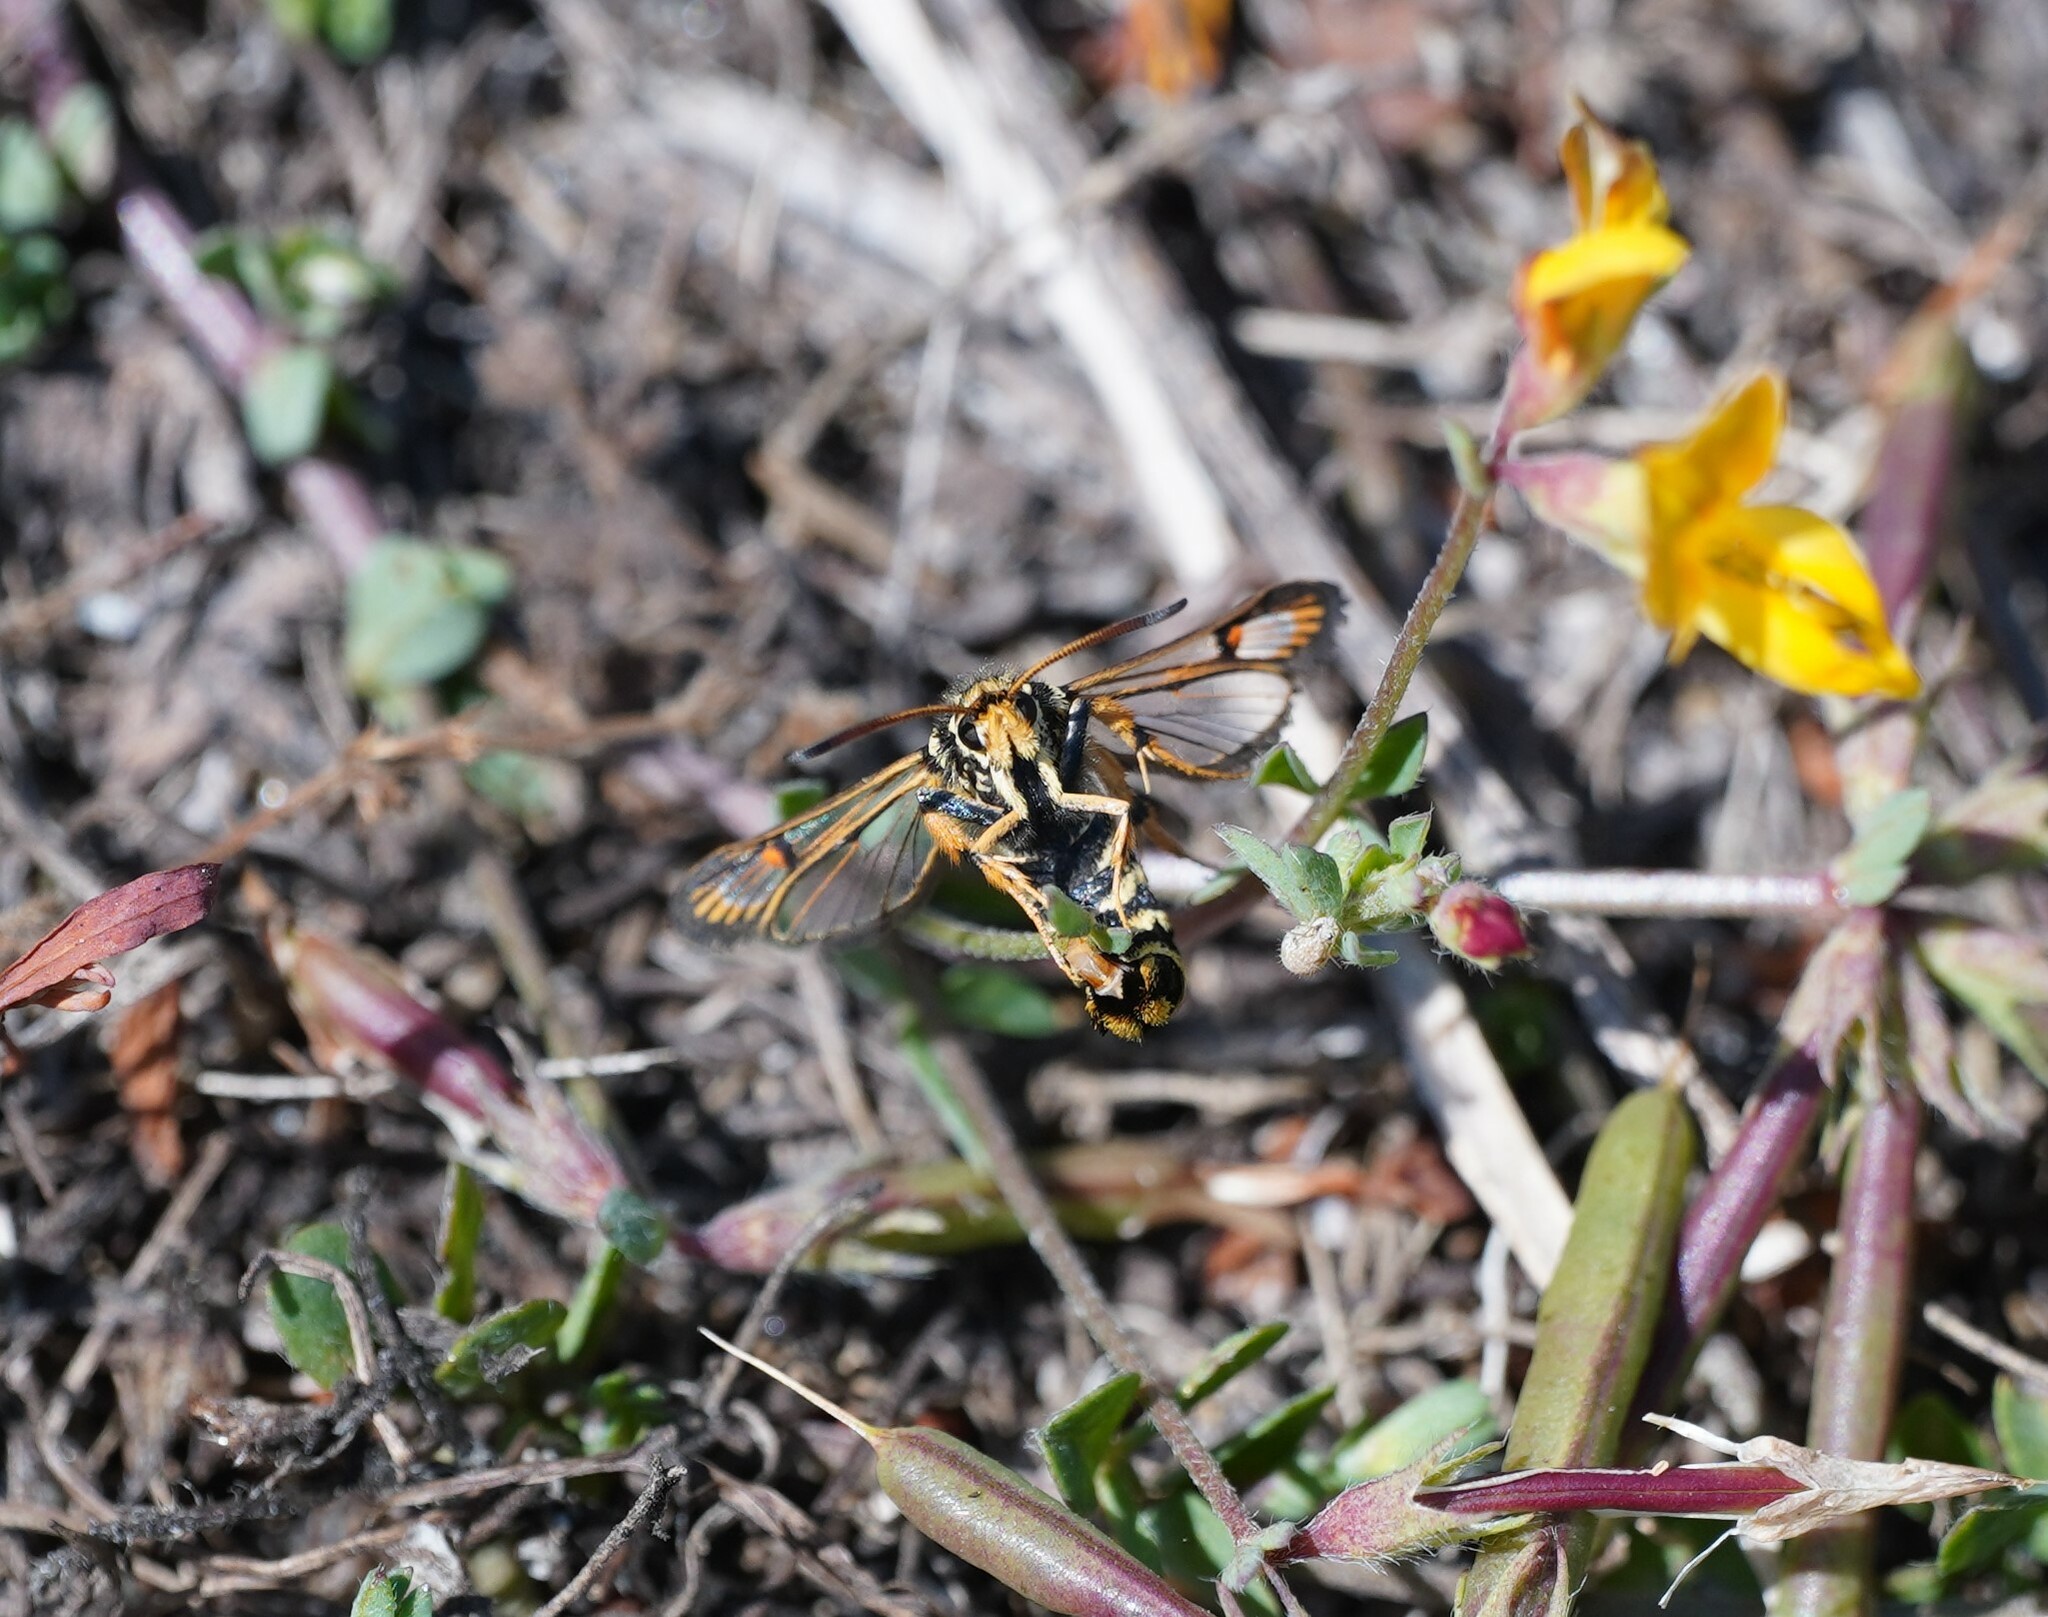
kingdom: Animalia
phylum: Arthropoda
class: Insecta
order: Lepidoptera
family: Sesiidae
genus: Bembecia
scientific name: Bembecia ichneumoniformis
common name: Six-belted clearwing
